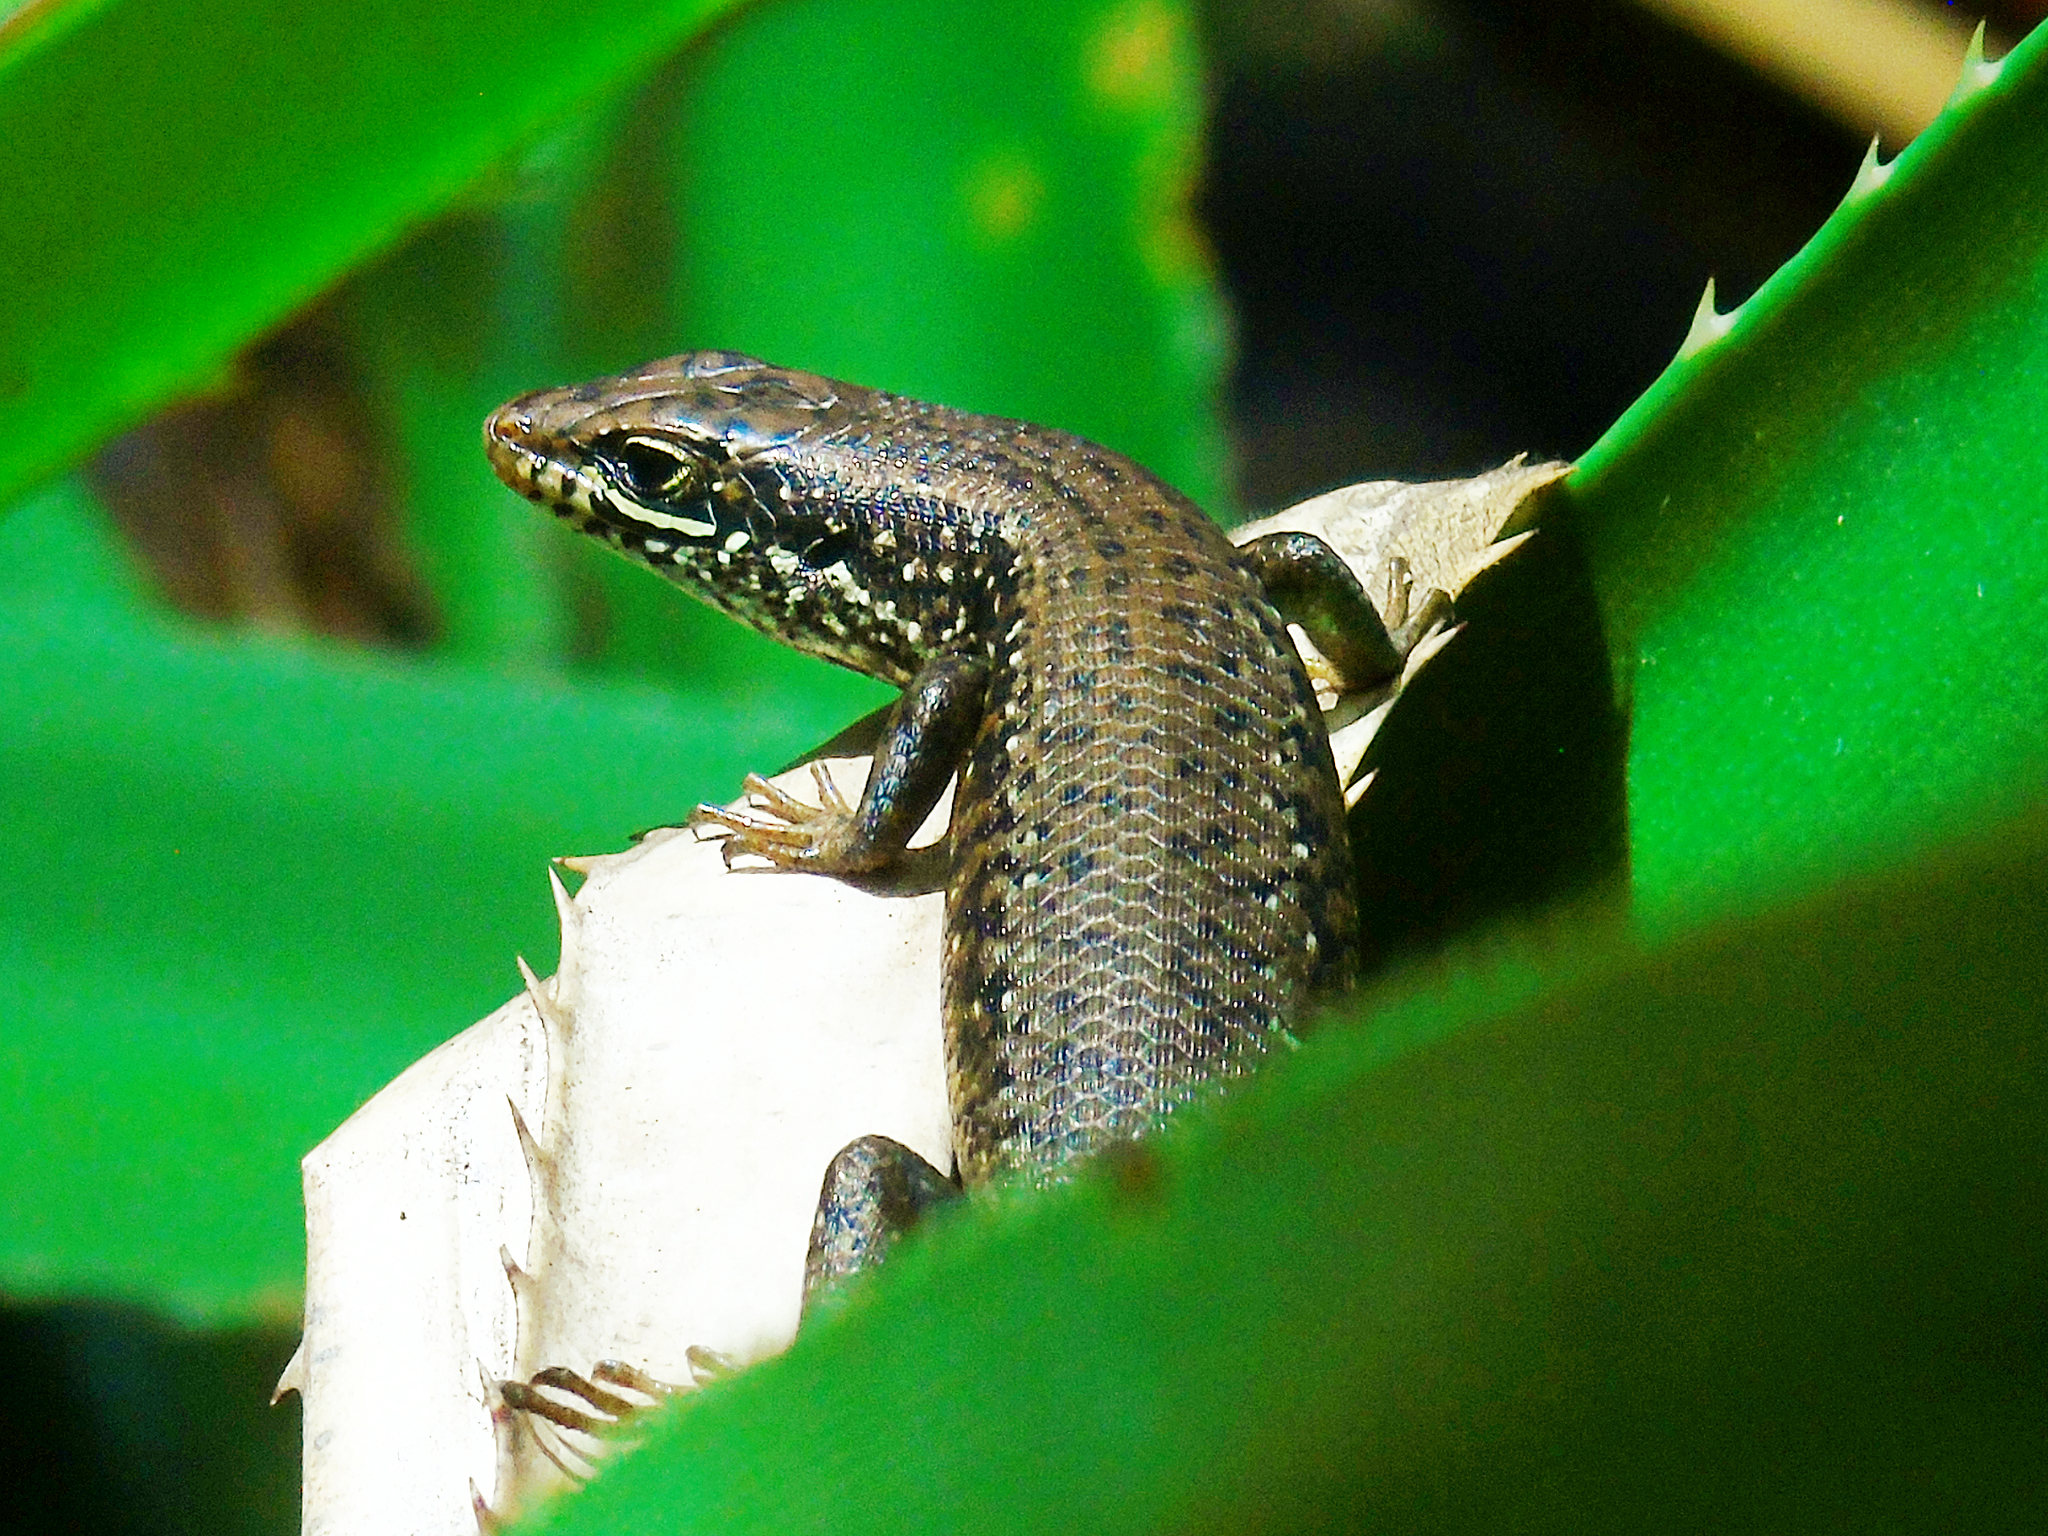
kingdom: Animalia
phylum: Chordata
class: Squamata
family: Scincidae
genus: Trachylepis
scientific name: Trachylepis maculilabris
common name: Speckle-lipped mabuya
